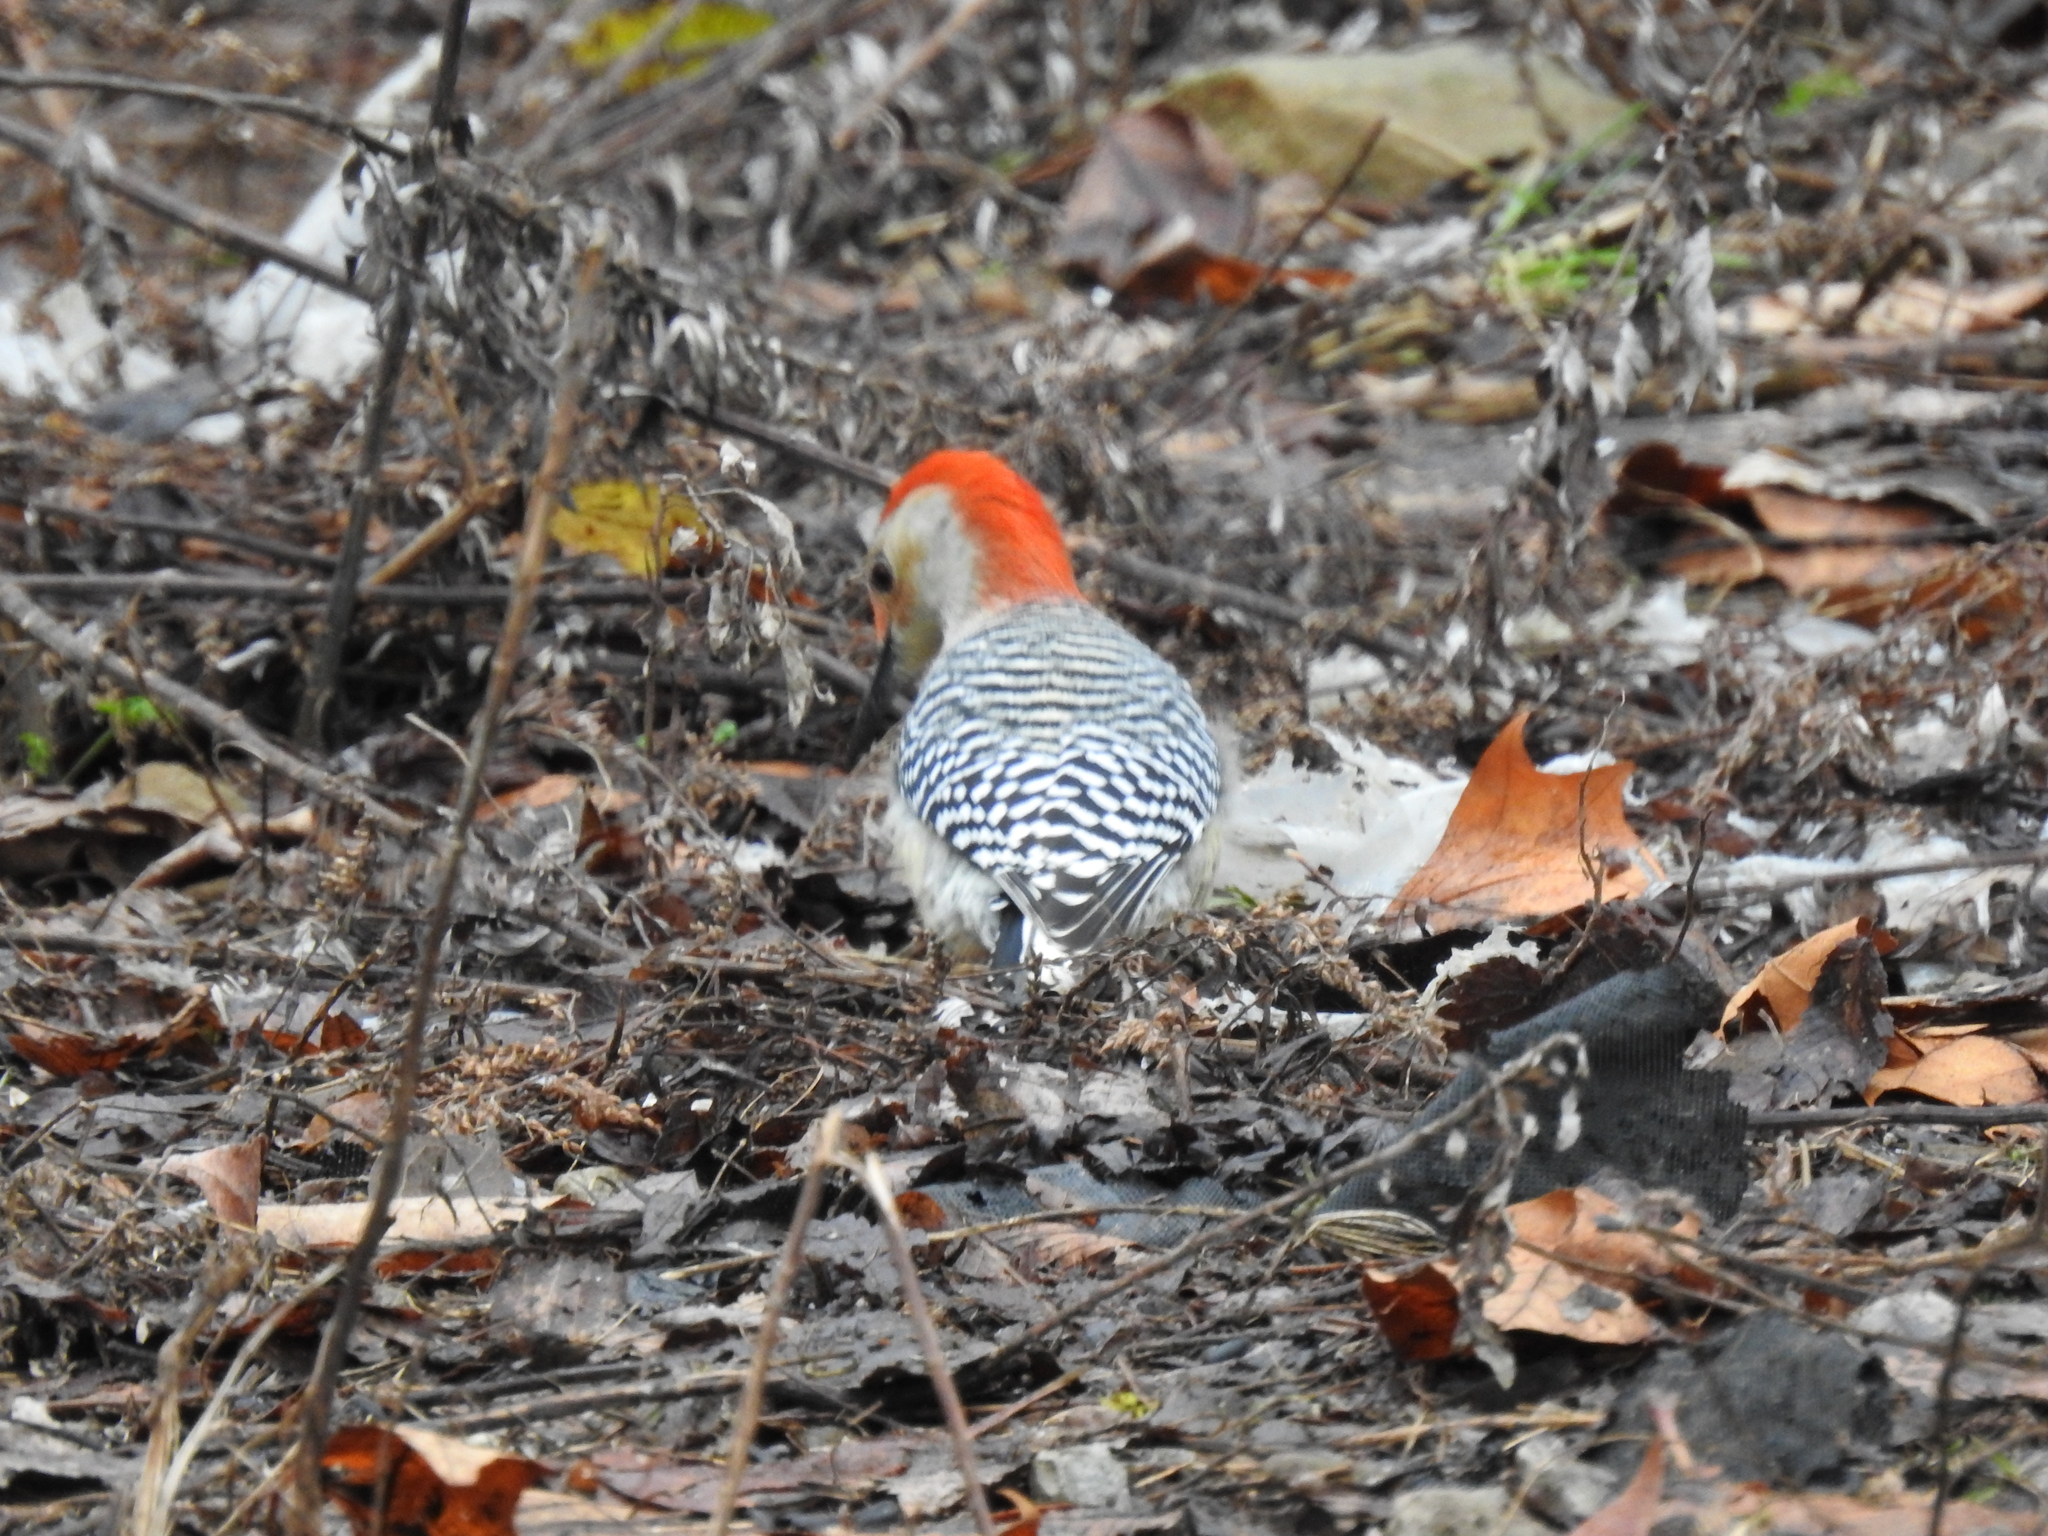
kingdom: Animalia
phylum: Chordata
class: Aves
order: Piciformes
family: Picidae
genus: Melanerpes
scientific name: Melanerpes carolinus
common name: Red-bellied woodpecker
